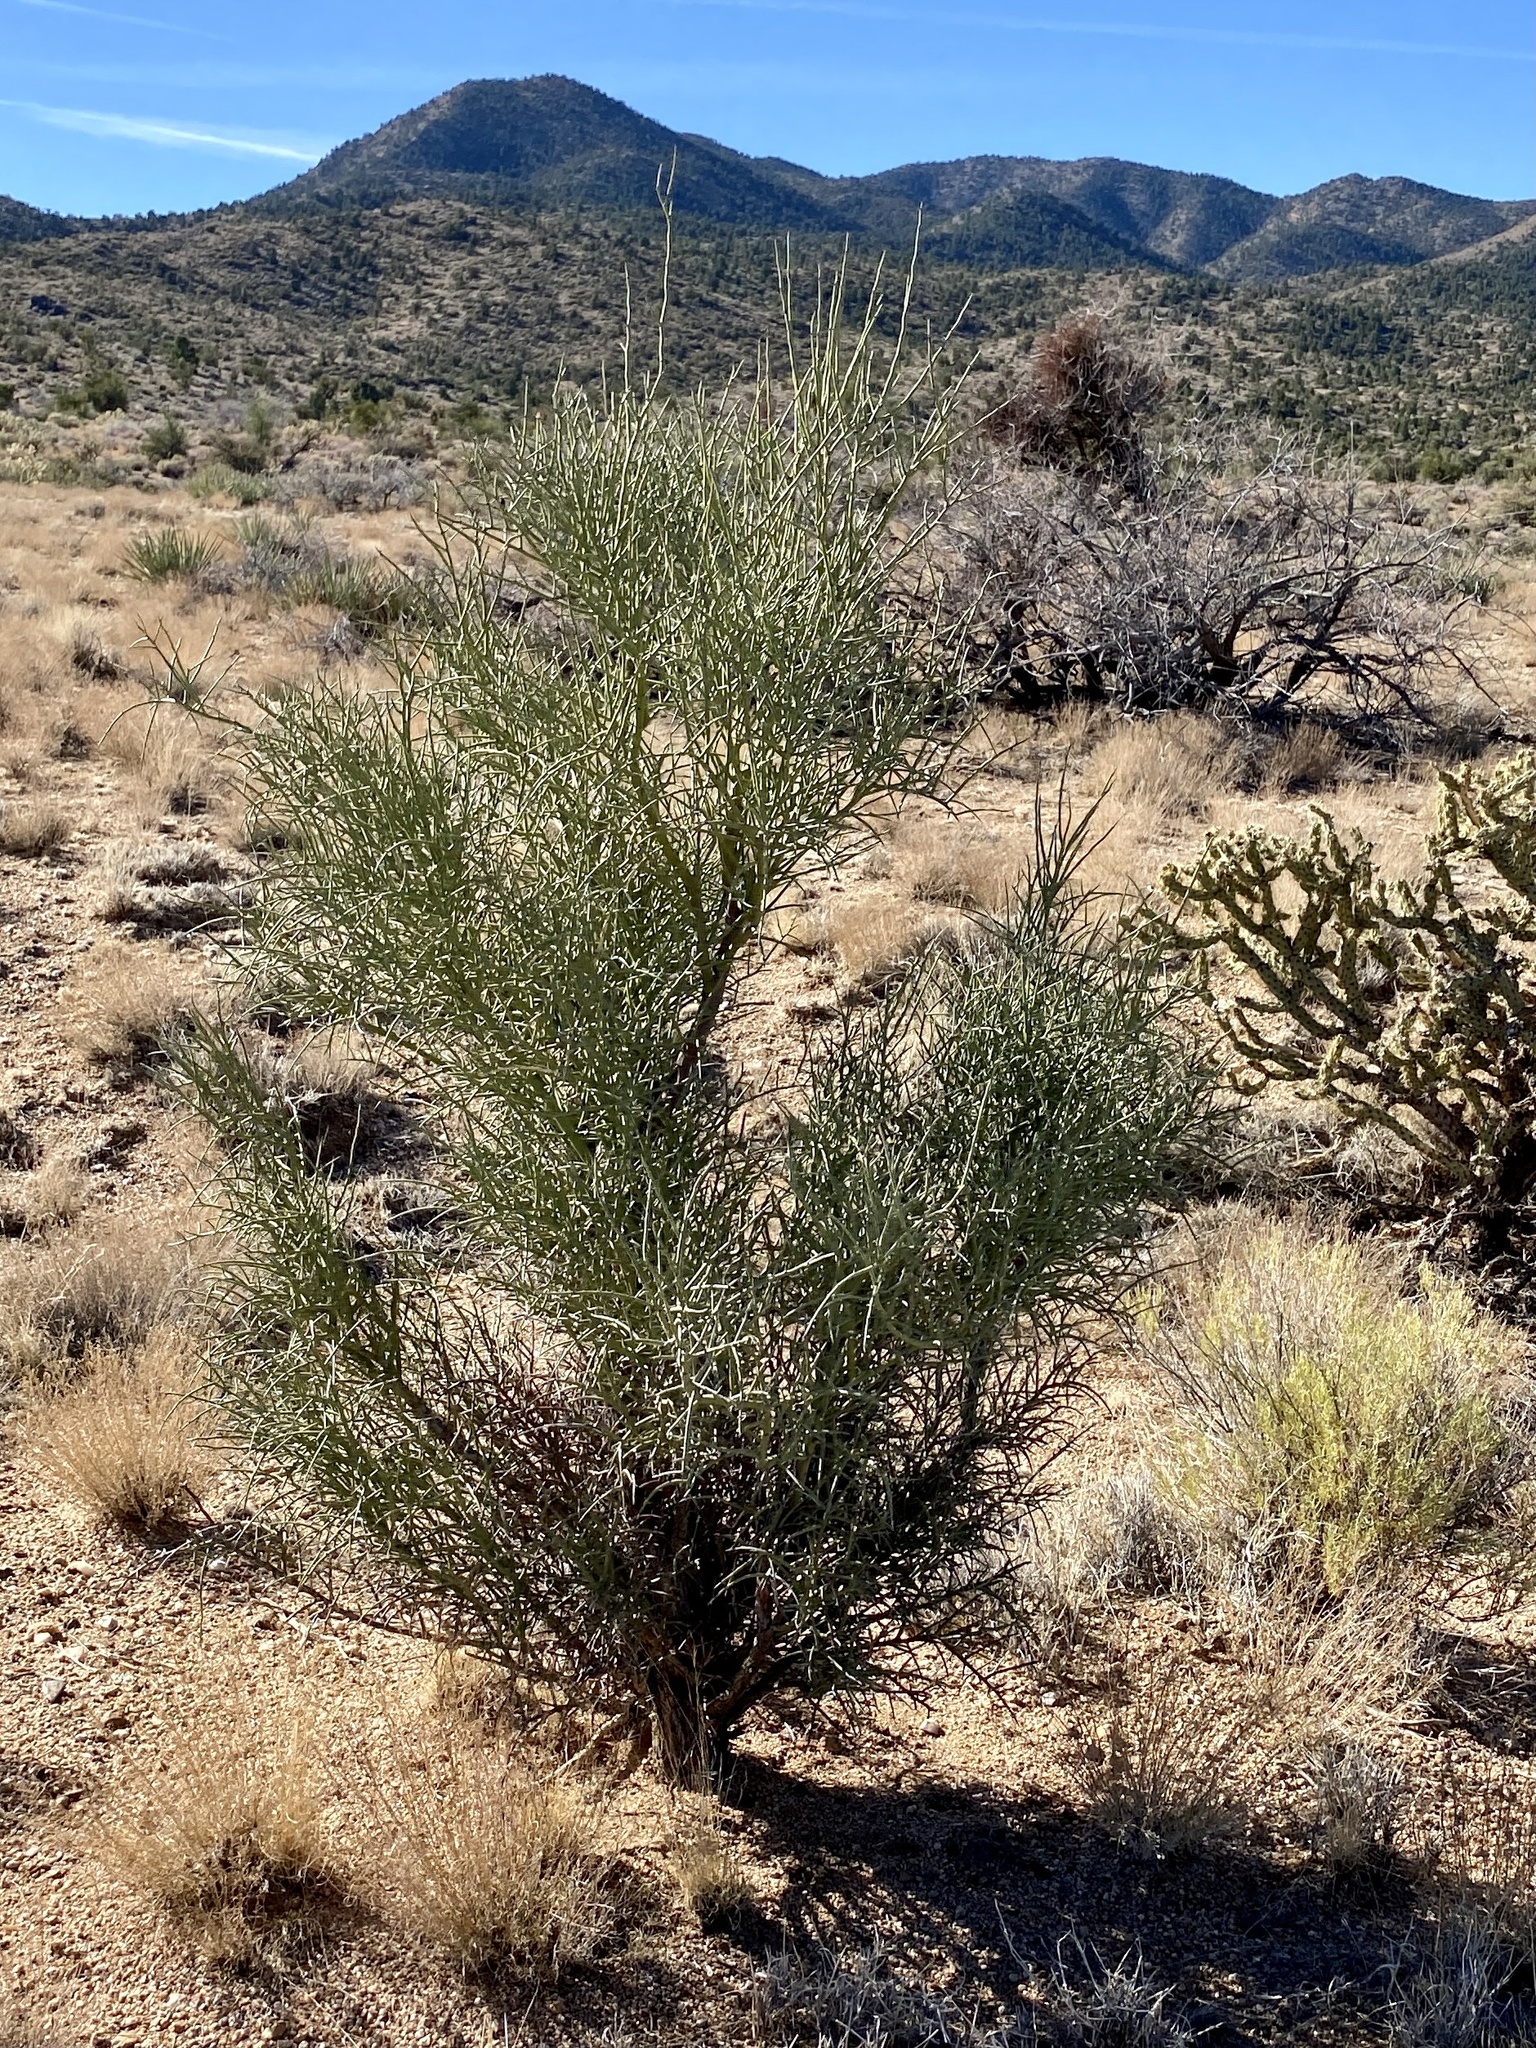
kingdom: Plantae
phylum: Tracheophyta
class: Magnoliopsida
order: Celastrales
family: Celastraceae
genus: Canotia
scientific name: Canotia holacantha
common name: Crucifixion thorns
